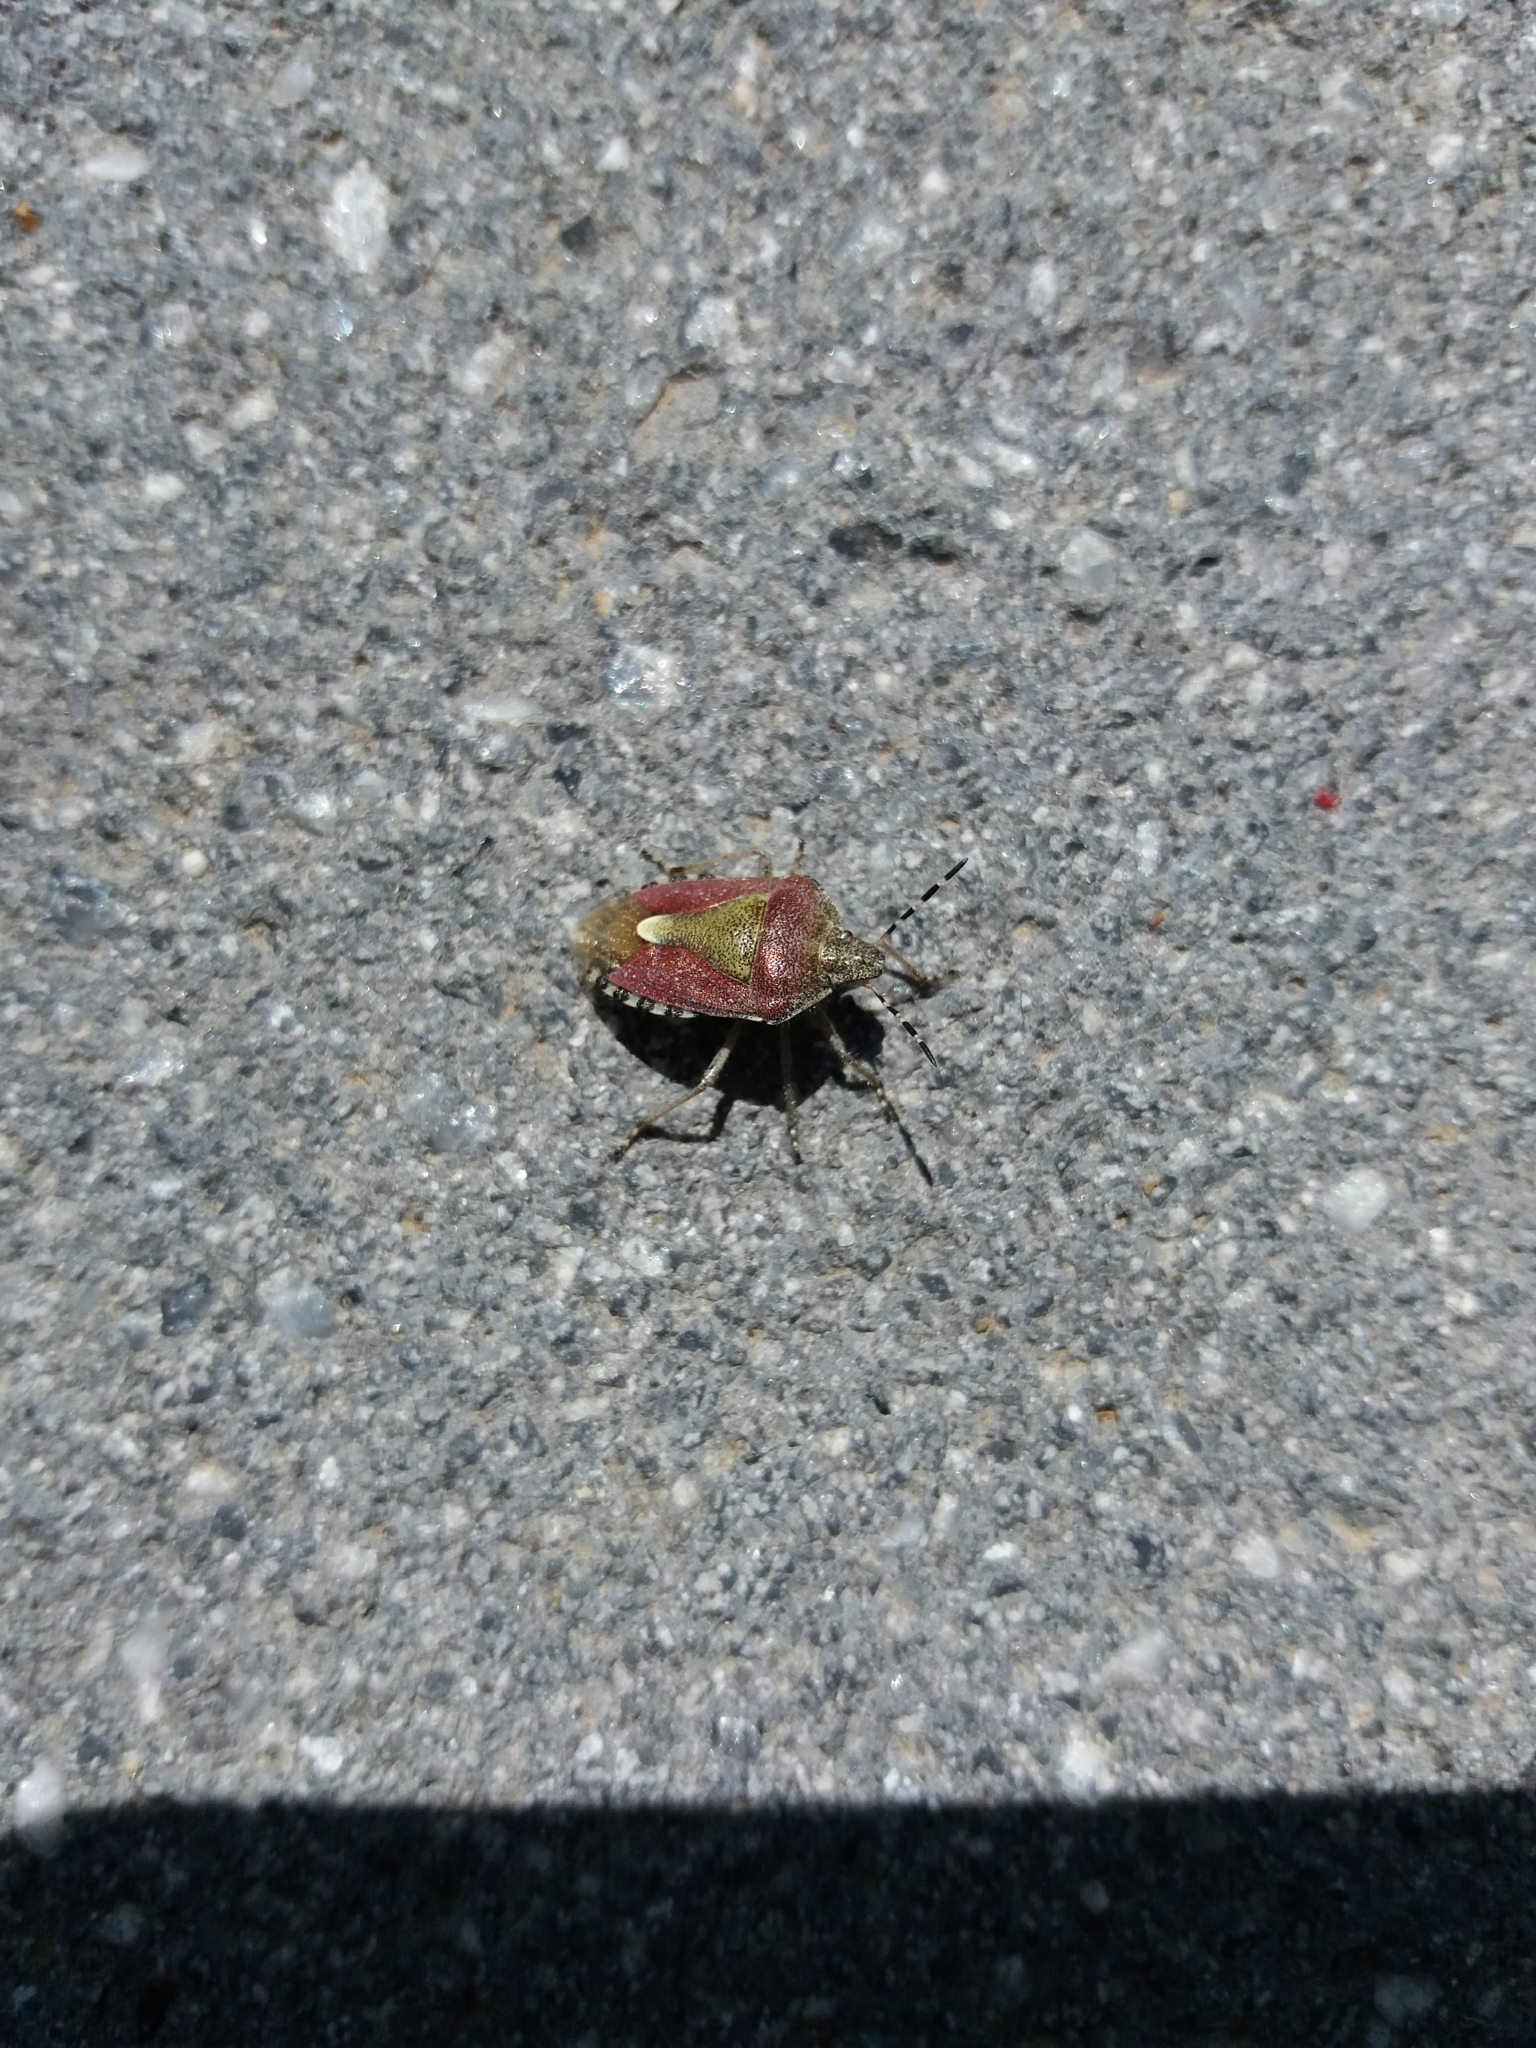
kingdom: Animalia
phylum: Arthropoda
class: Insecta
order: Hemiptera
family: Pentatomidae
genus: Dolycoris
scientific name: Dolycoris baccarum
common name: Sloe bug
